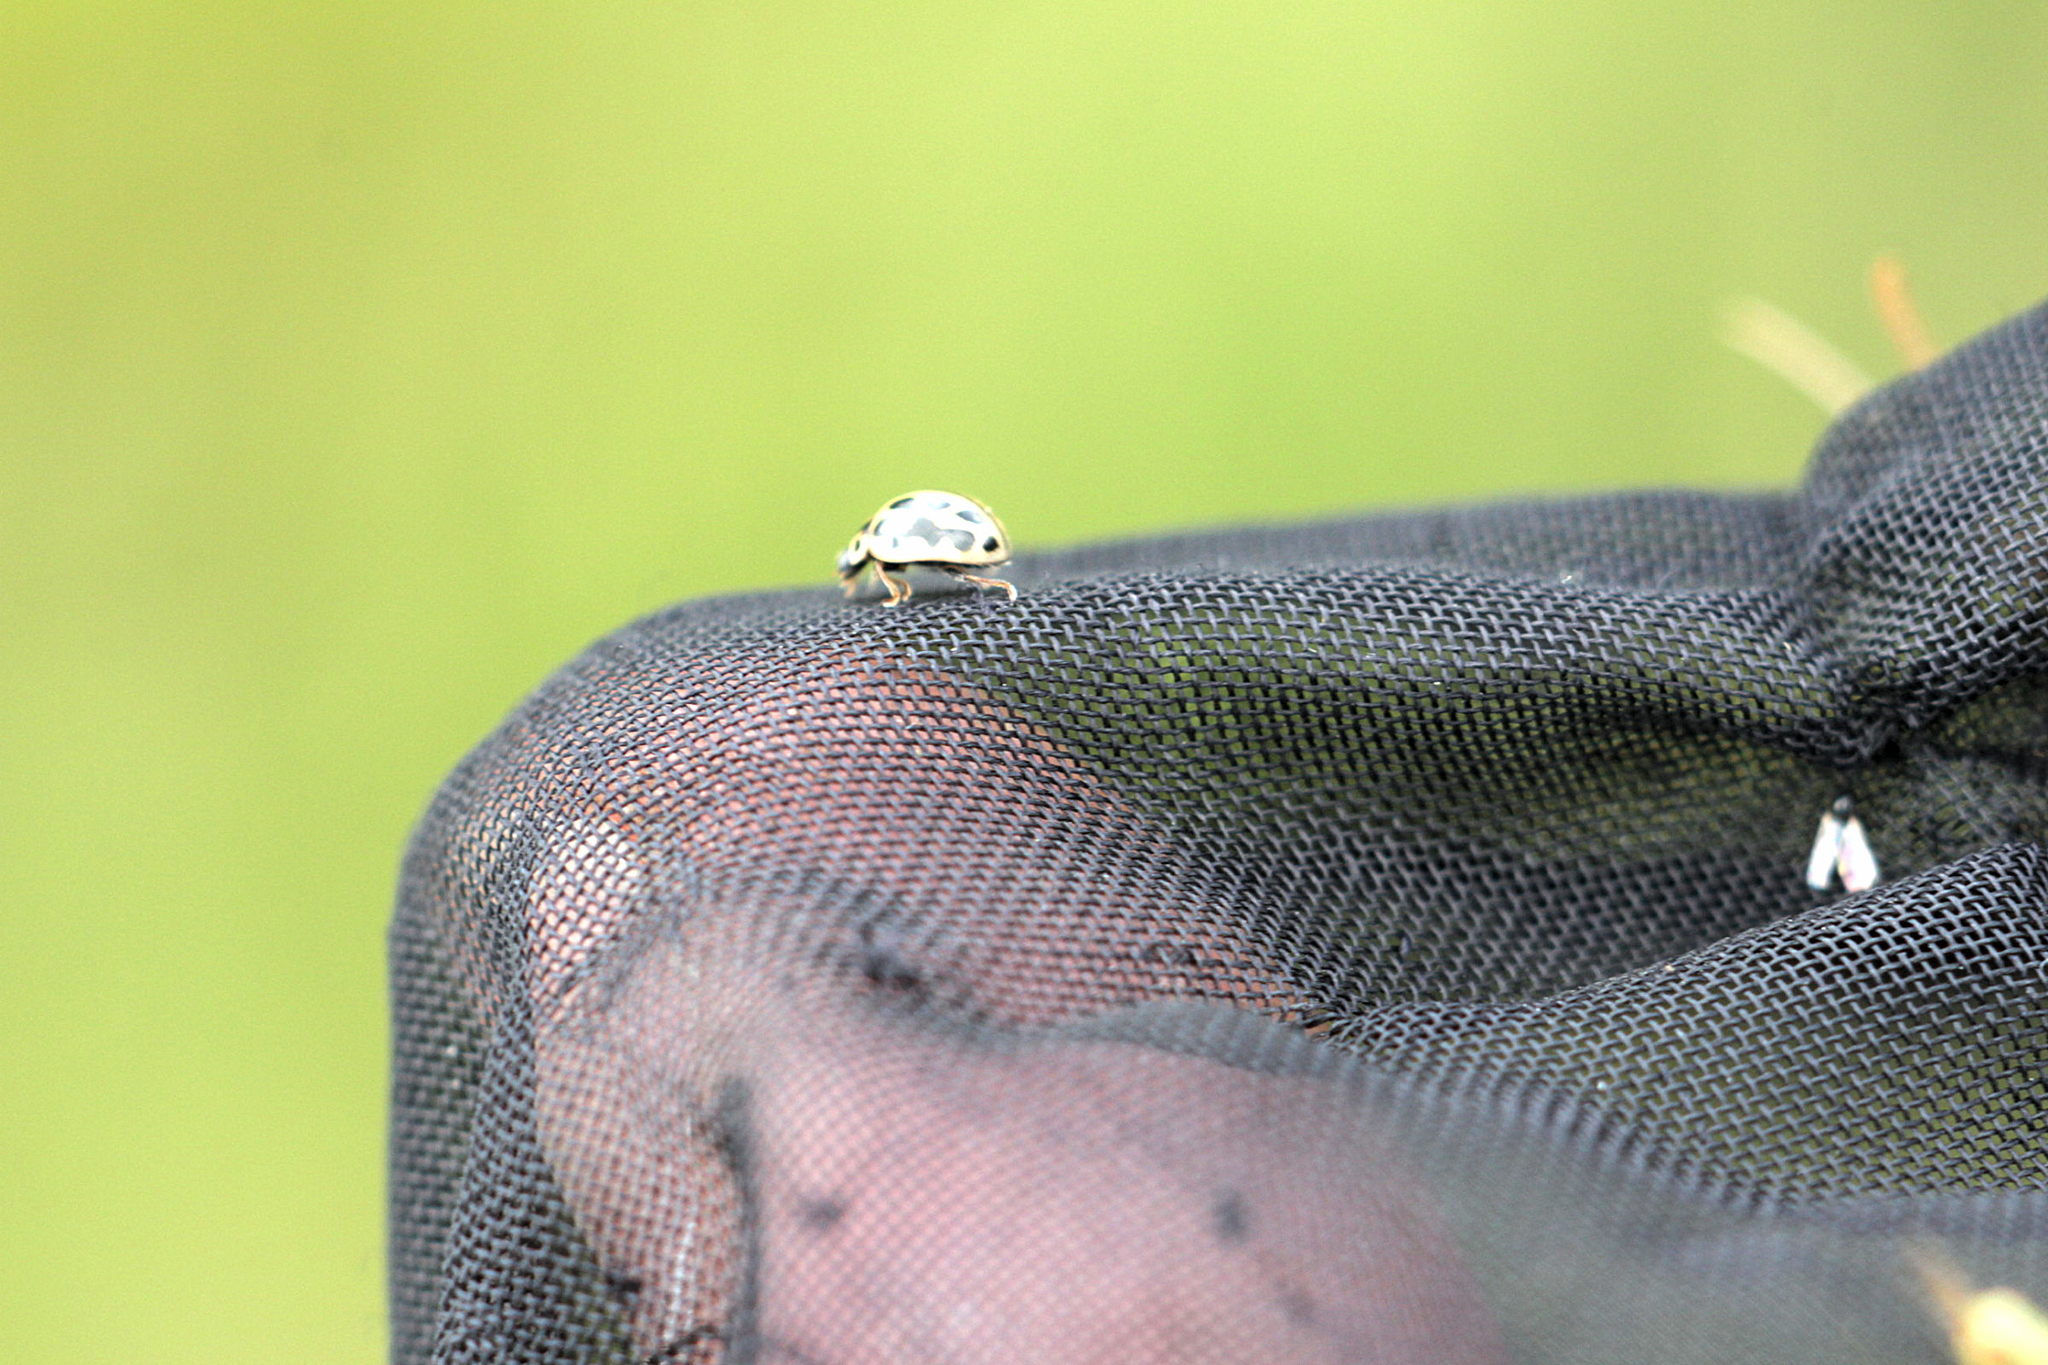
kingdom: Animalia
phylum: Arthropoda
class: Insecta
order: Coleoptera
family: Coccinellidae
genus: Tytthaspis
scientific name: Tytthaspis sedecimpunctata
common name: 16-spot ladybird
